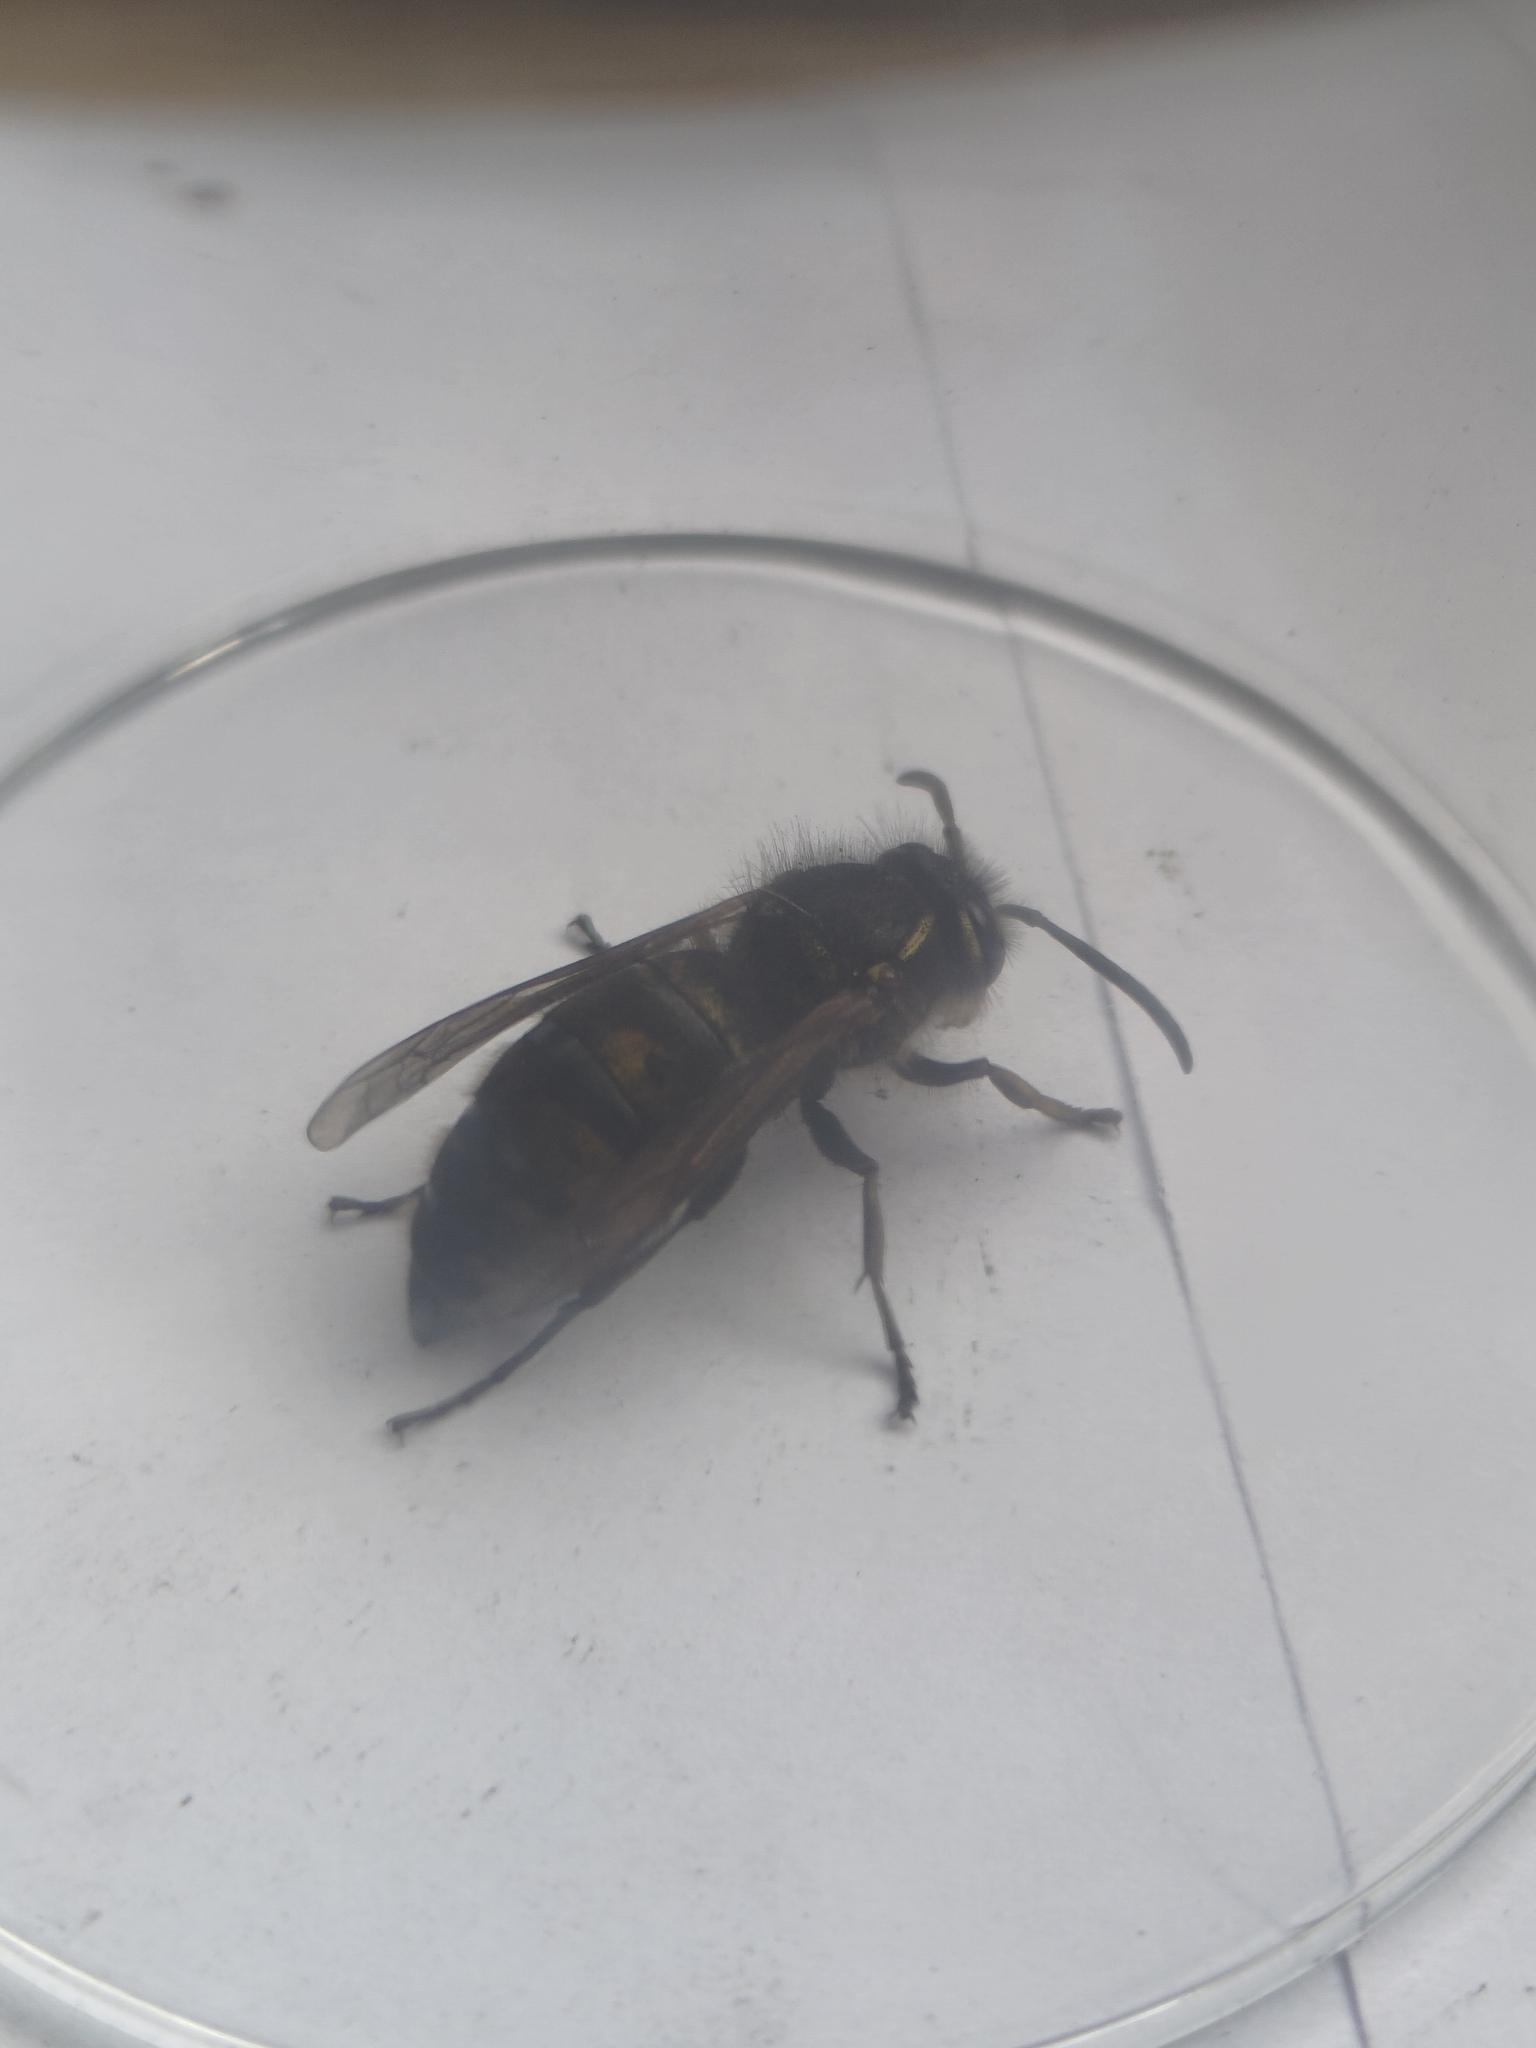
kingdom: Animalia
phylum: Arthropoda
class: Insecta
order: Hymenoptera
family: Vespidae
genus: Vespula
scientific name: Vespula vulgaris
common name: Common wasp
